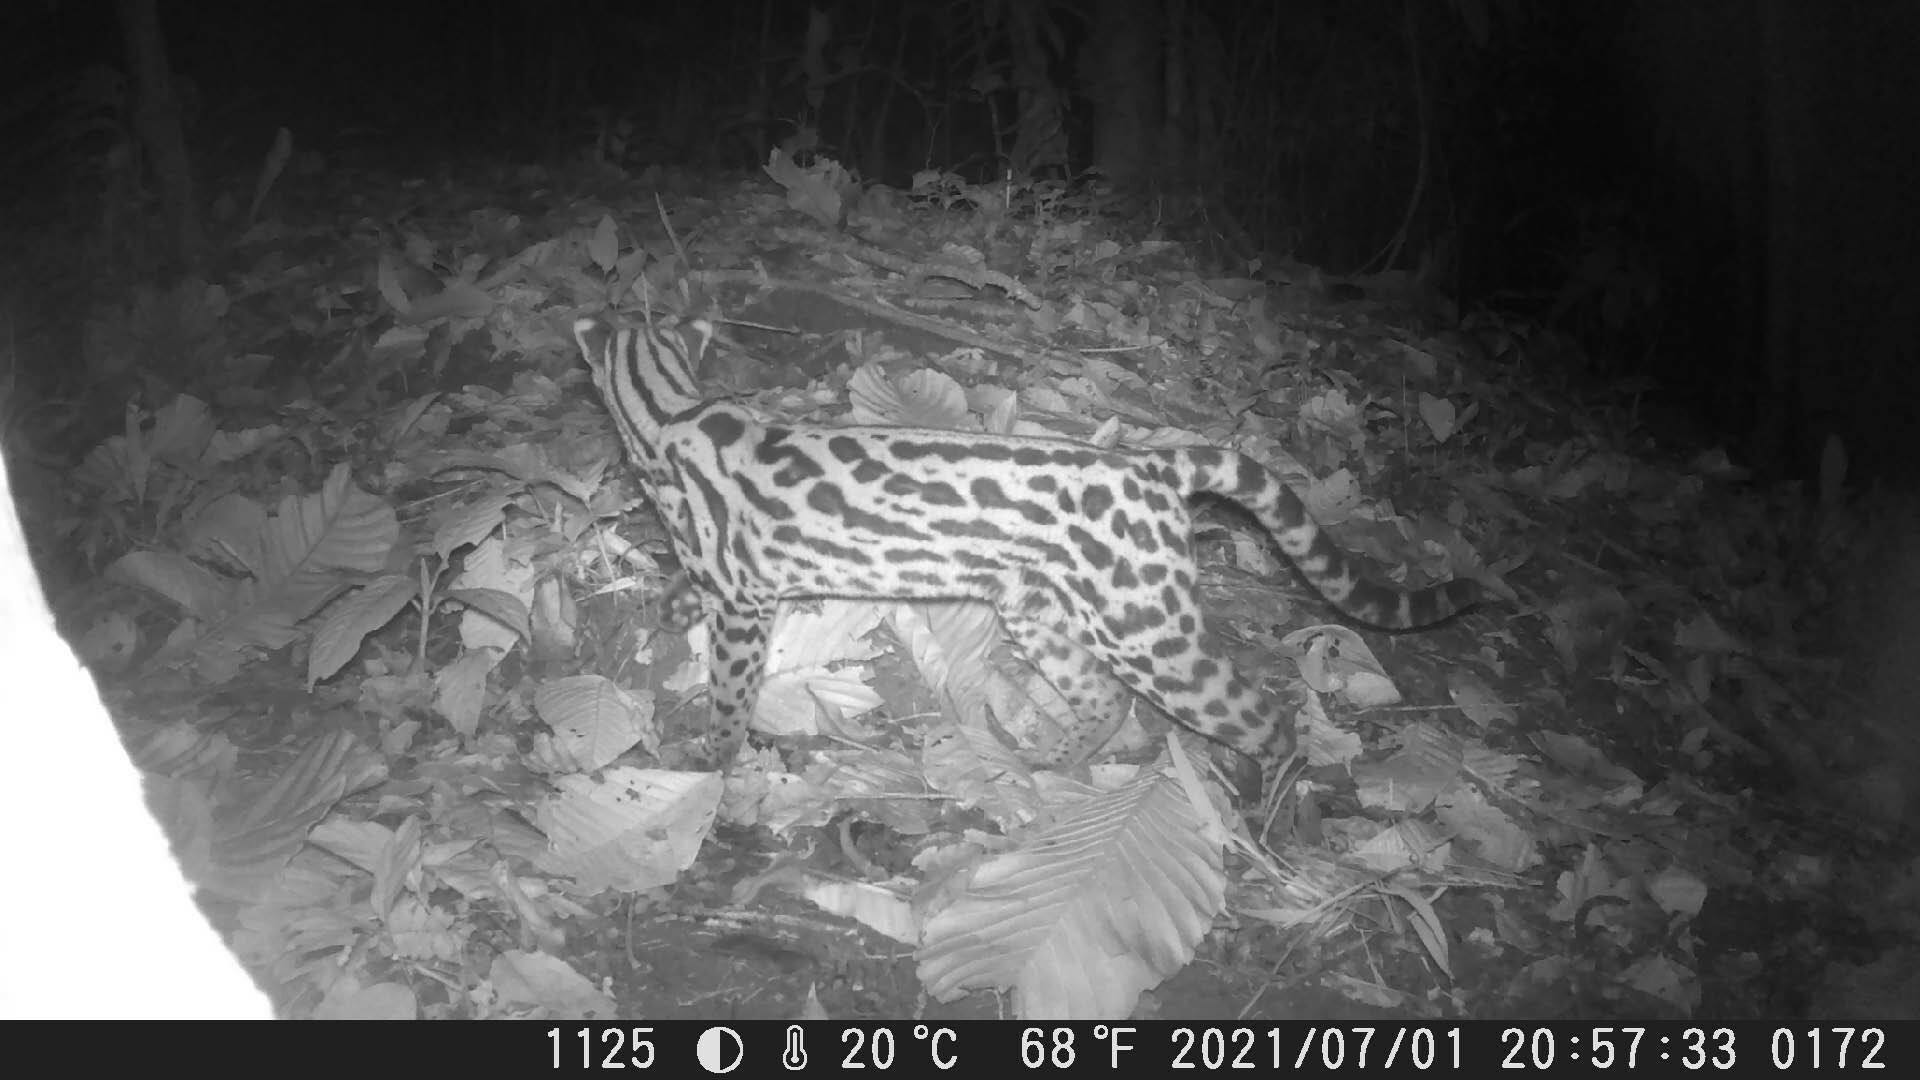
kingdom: Animalia
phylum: Chordata
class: Mammalia
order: Carnivora
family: Felidae
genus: Leopardus
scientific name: Leopardus wiedii
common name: Margay
